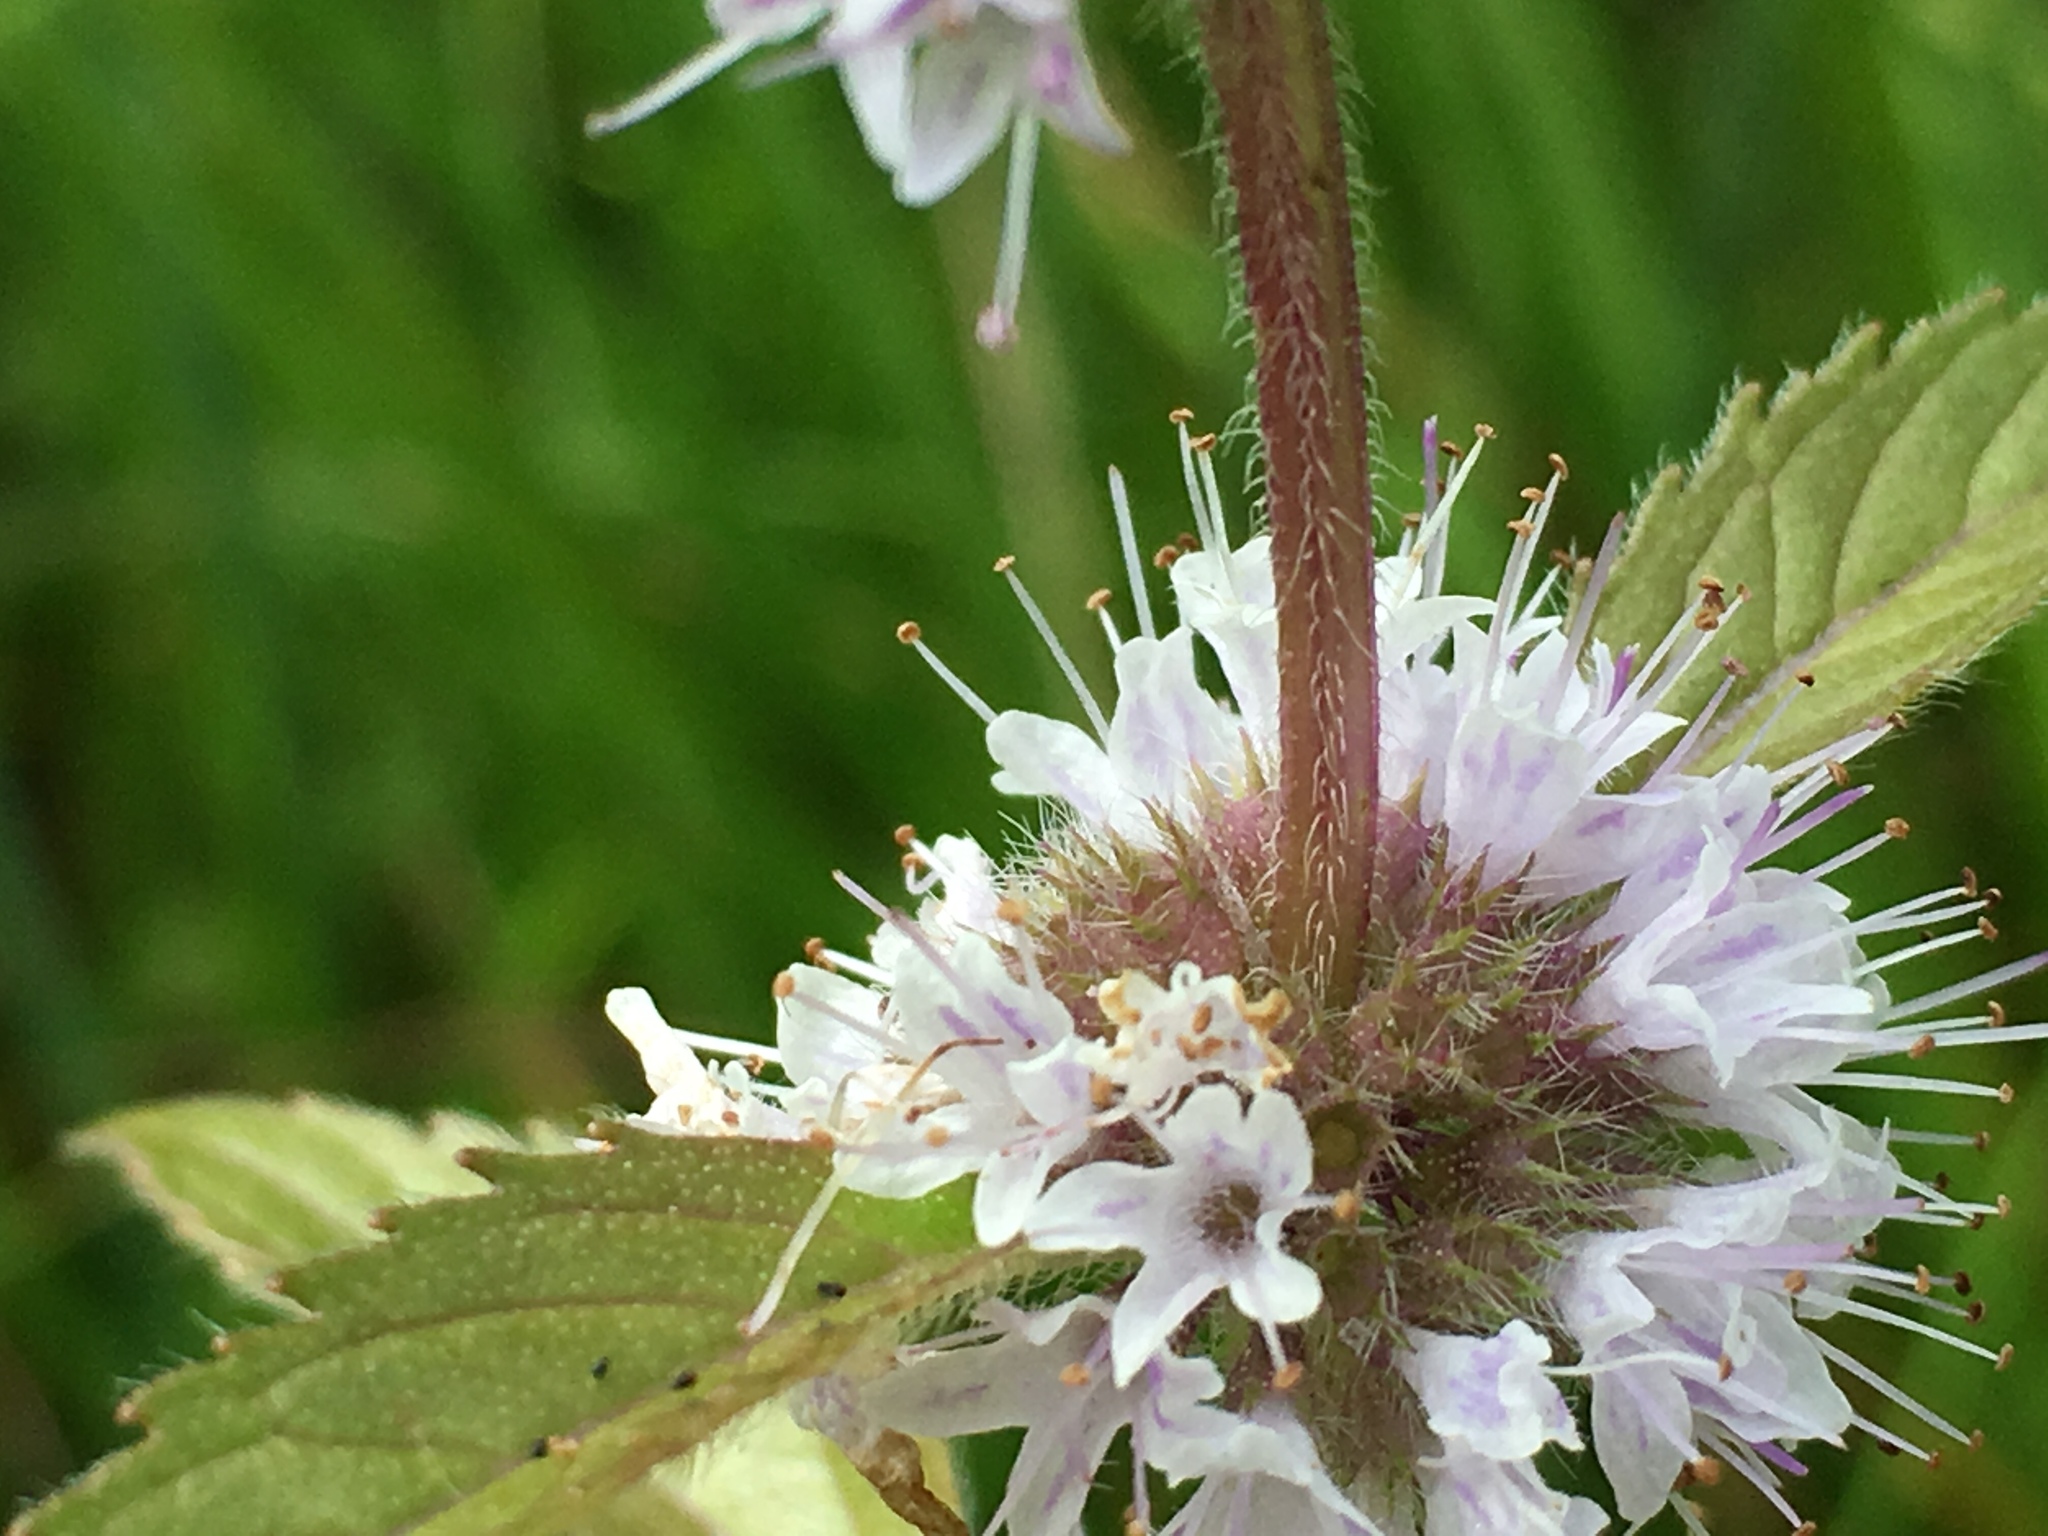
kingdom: Plantae
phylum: Tracheophyta
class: Magnoliopsida
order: Lamiales
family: Lamiaceae
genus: Mentha
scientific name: Mentha canadensis
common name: American corn mint
